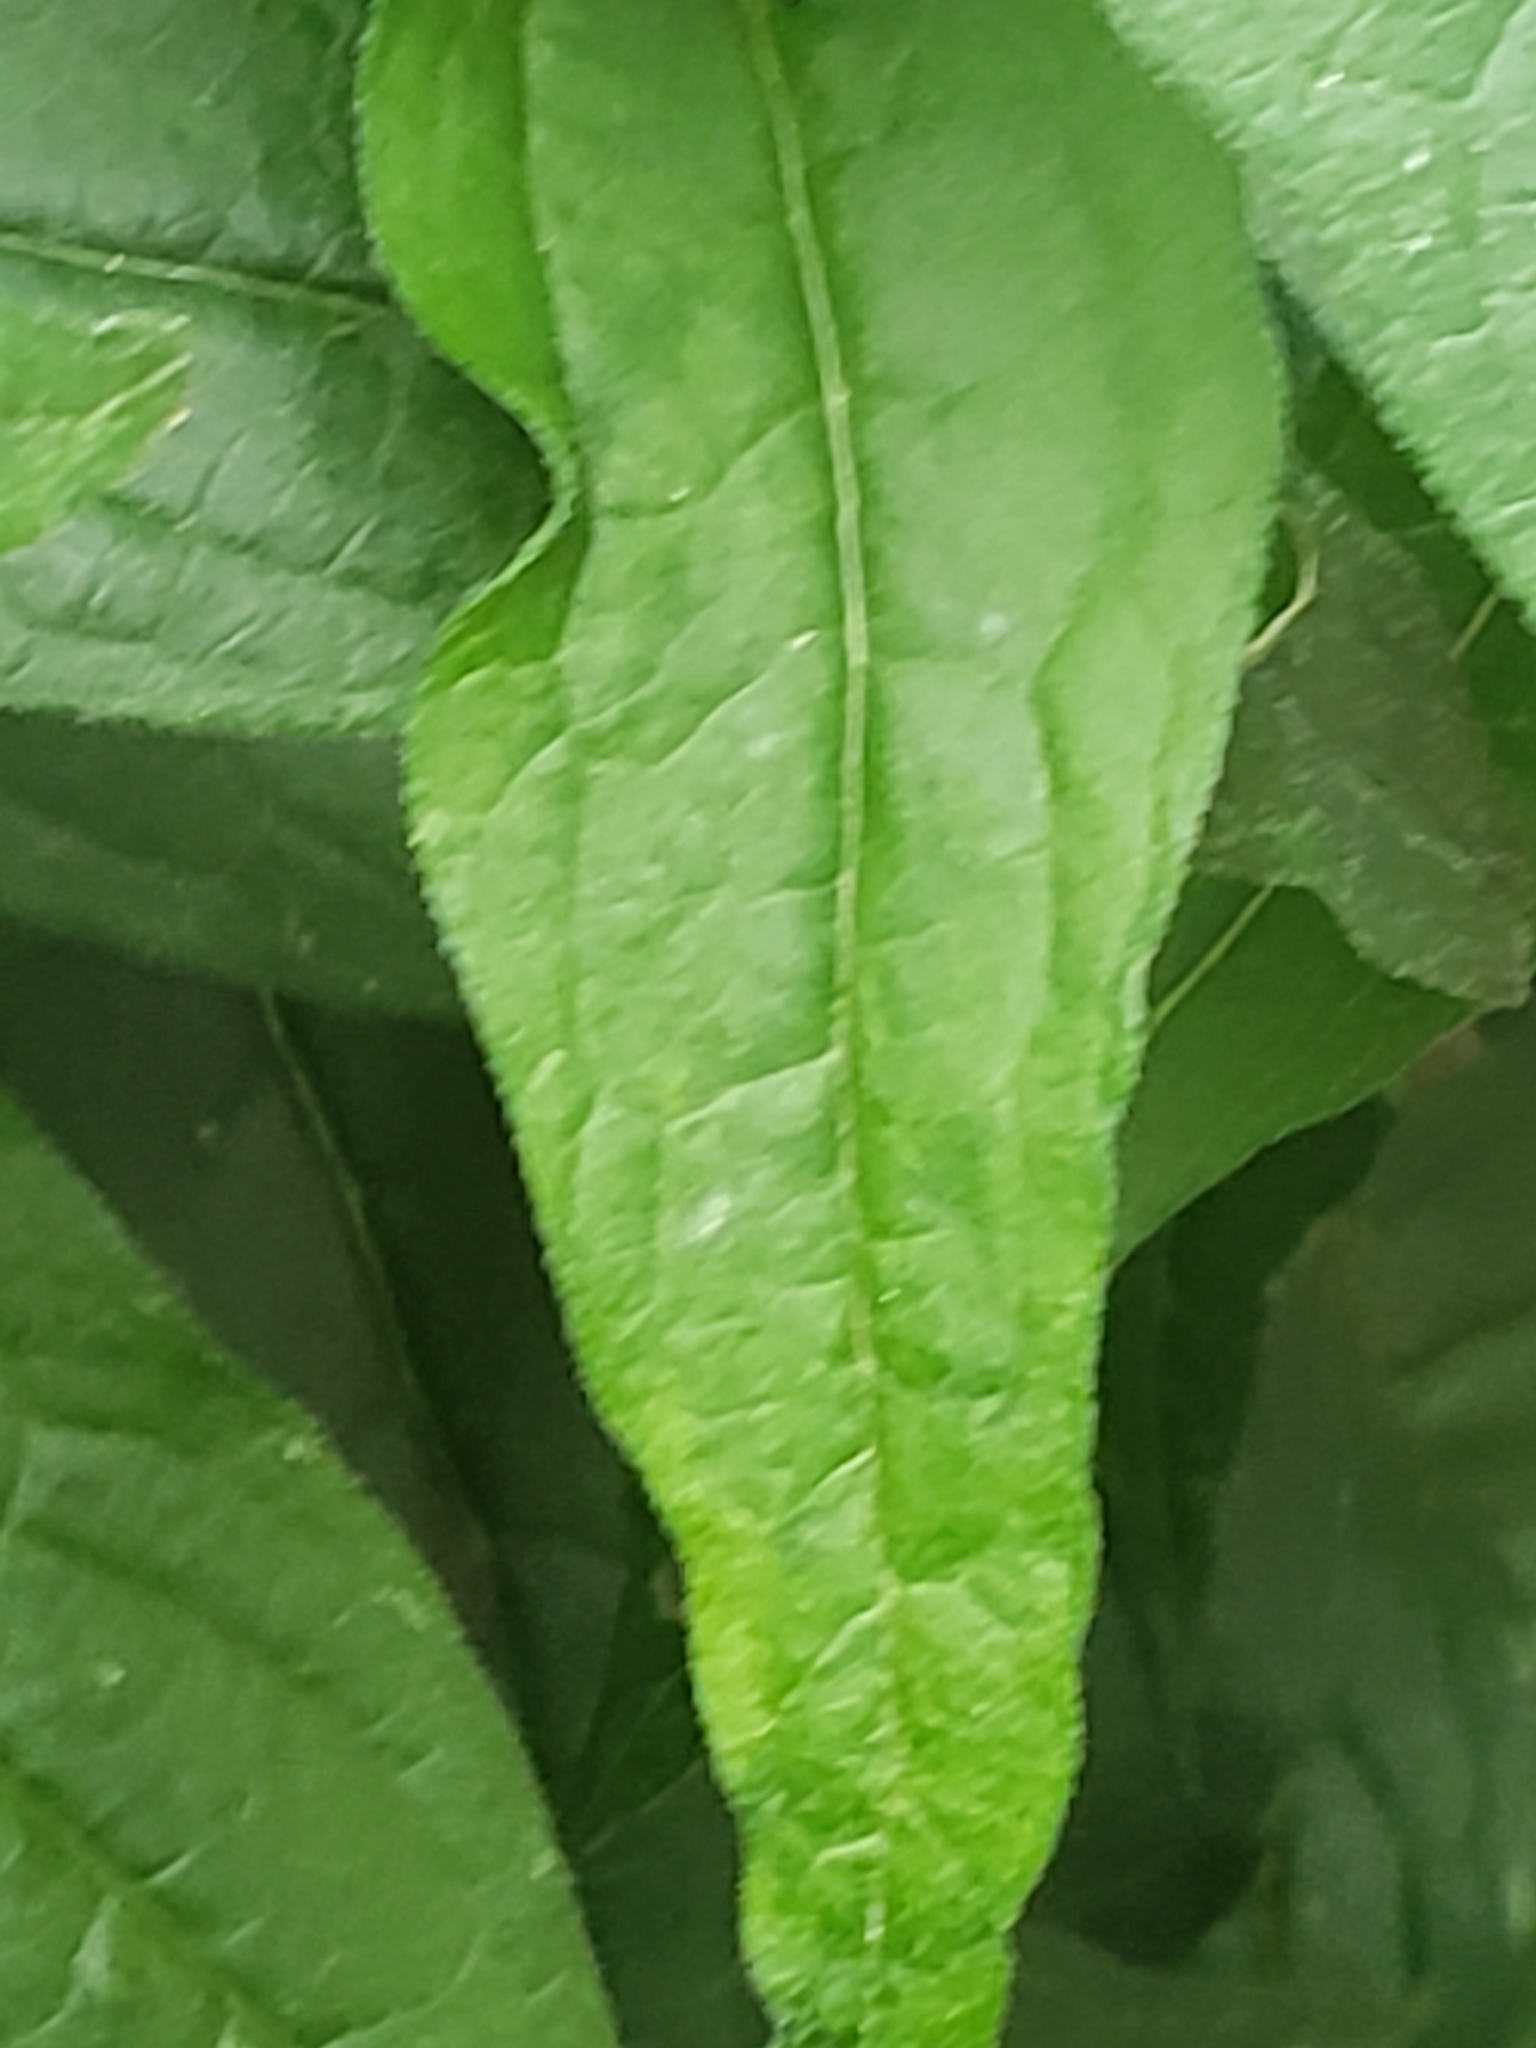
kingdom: Plantae
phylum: Tracheophyta
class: Magnoliopsida
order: Dipsacales
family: Caprifoliaceae
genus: Valeriana
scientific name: Valeriana officinalis
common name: Common valerian
